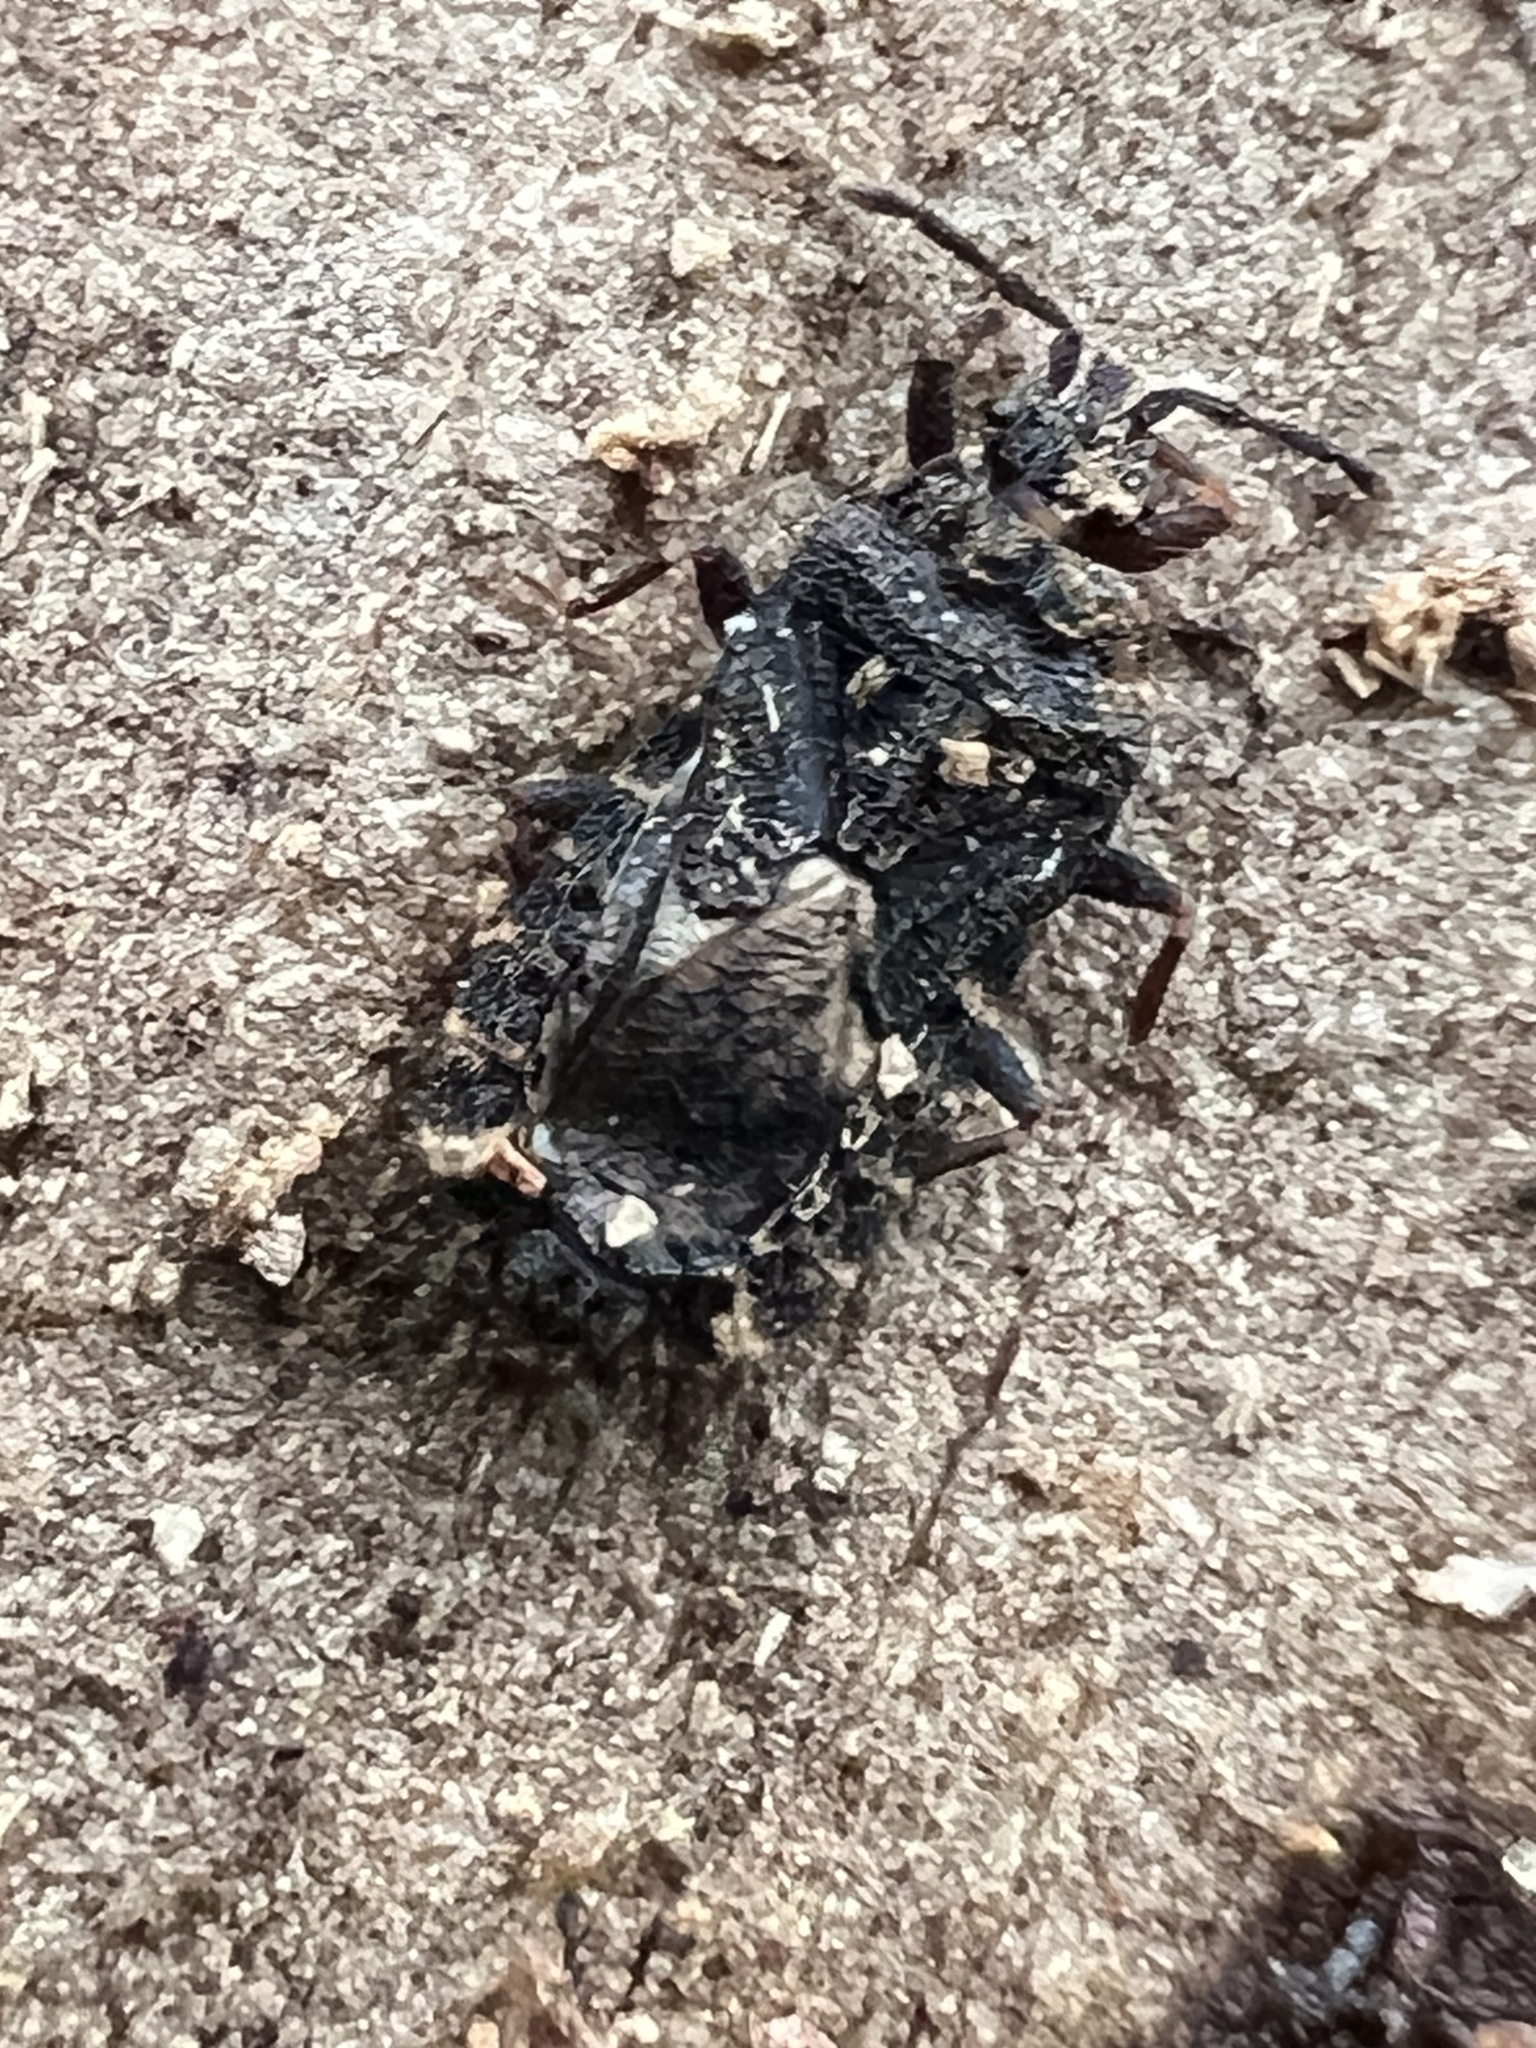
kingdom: Animalia
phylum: Arthropoda
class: Insecta
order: Hemiptera
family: Aradidae
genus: Mezira
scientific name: Mezira
